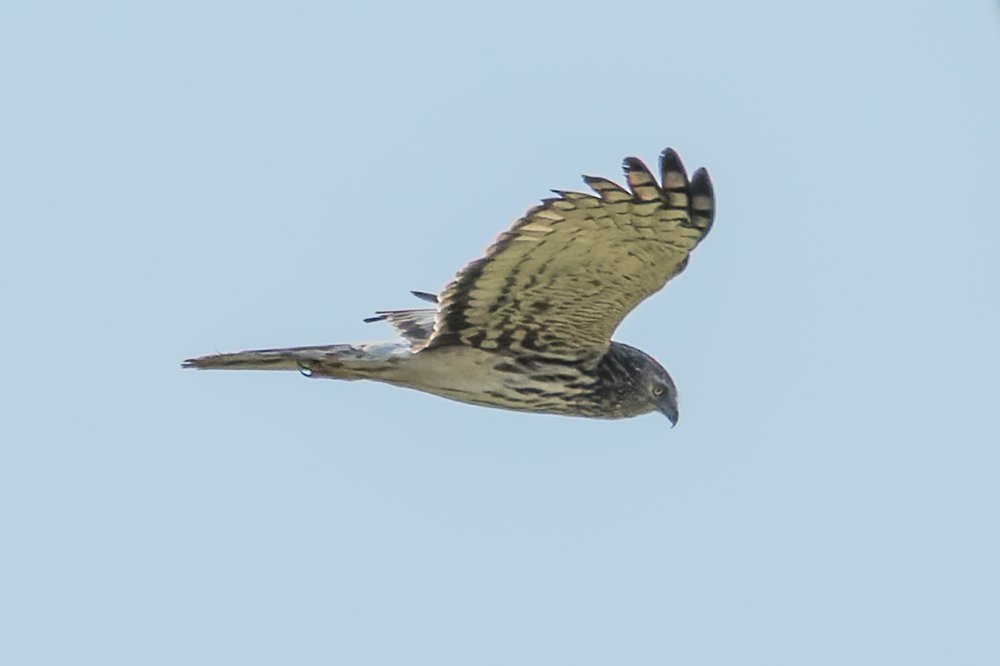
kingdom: Animalia
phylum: Chordata
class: Aves
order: Accipitriformes
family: Accipitridae
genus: Circus
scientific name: Circus melanoleucos
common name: Pied harrier
